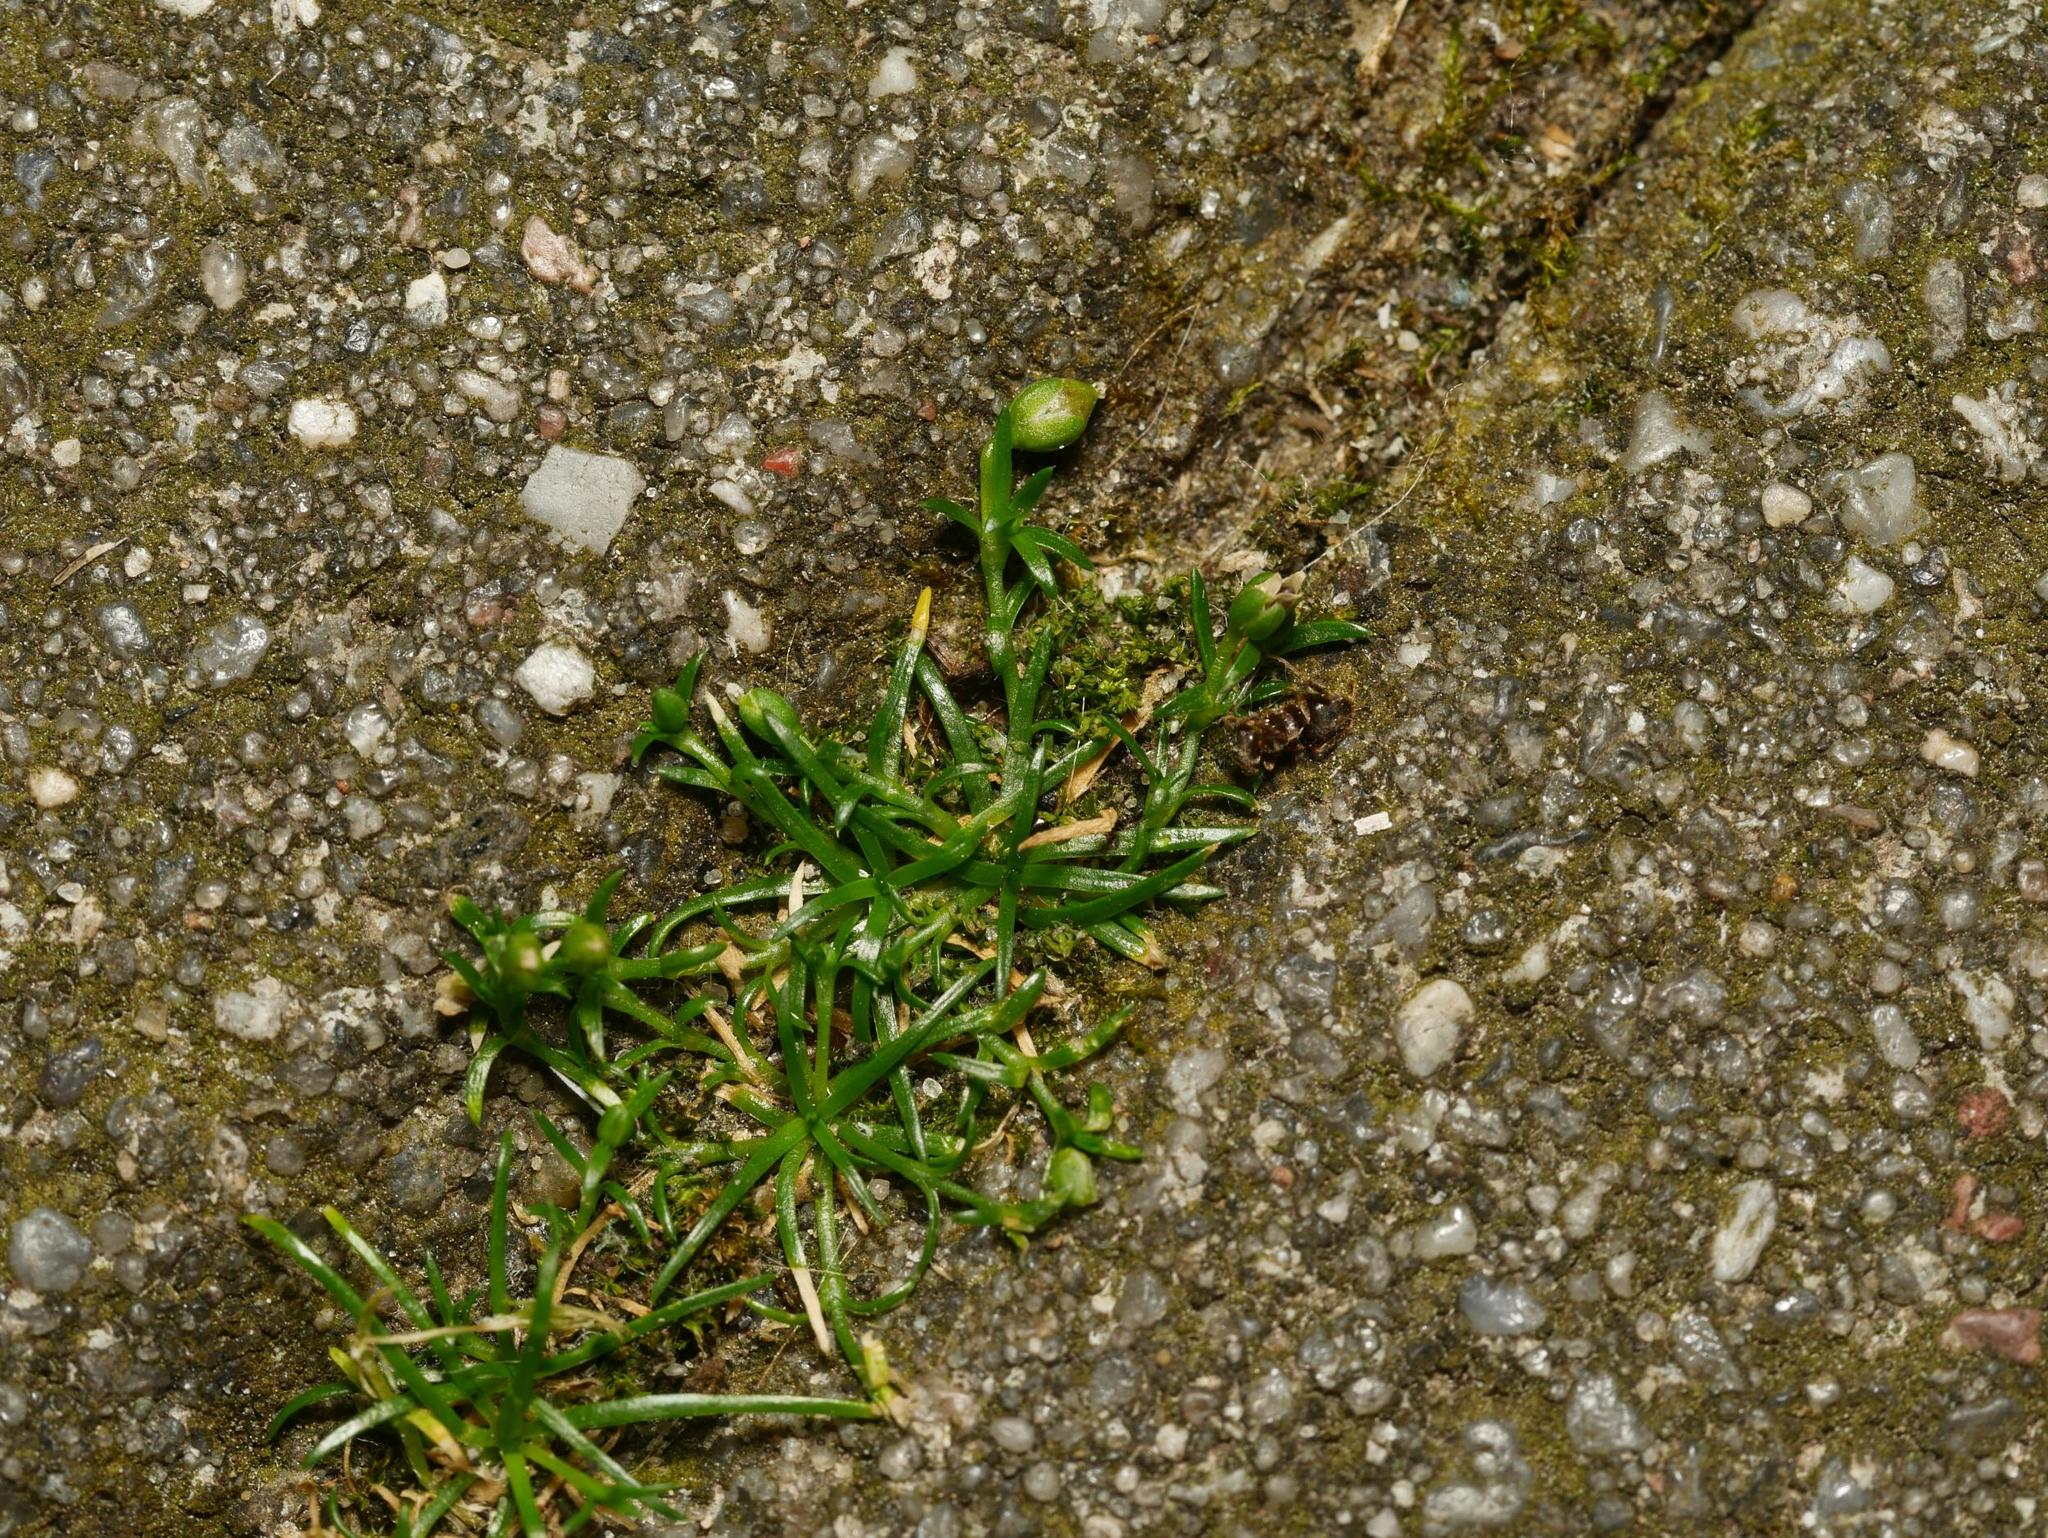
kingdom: Plantae
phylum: Tracheophyta
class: Magnoliopsida
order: Caryophyllales
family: Caryophyllaceae
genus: Sagina
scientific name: Sagina procumbens
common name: Procumbent pearlwort
